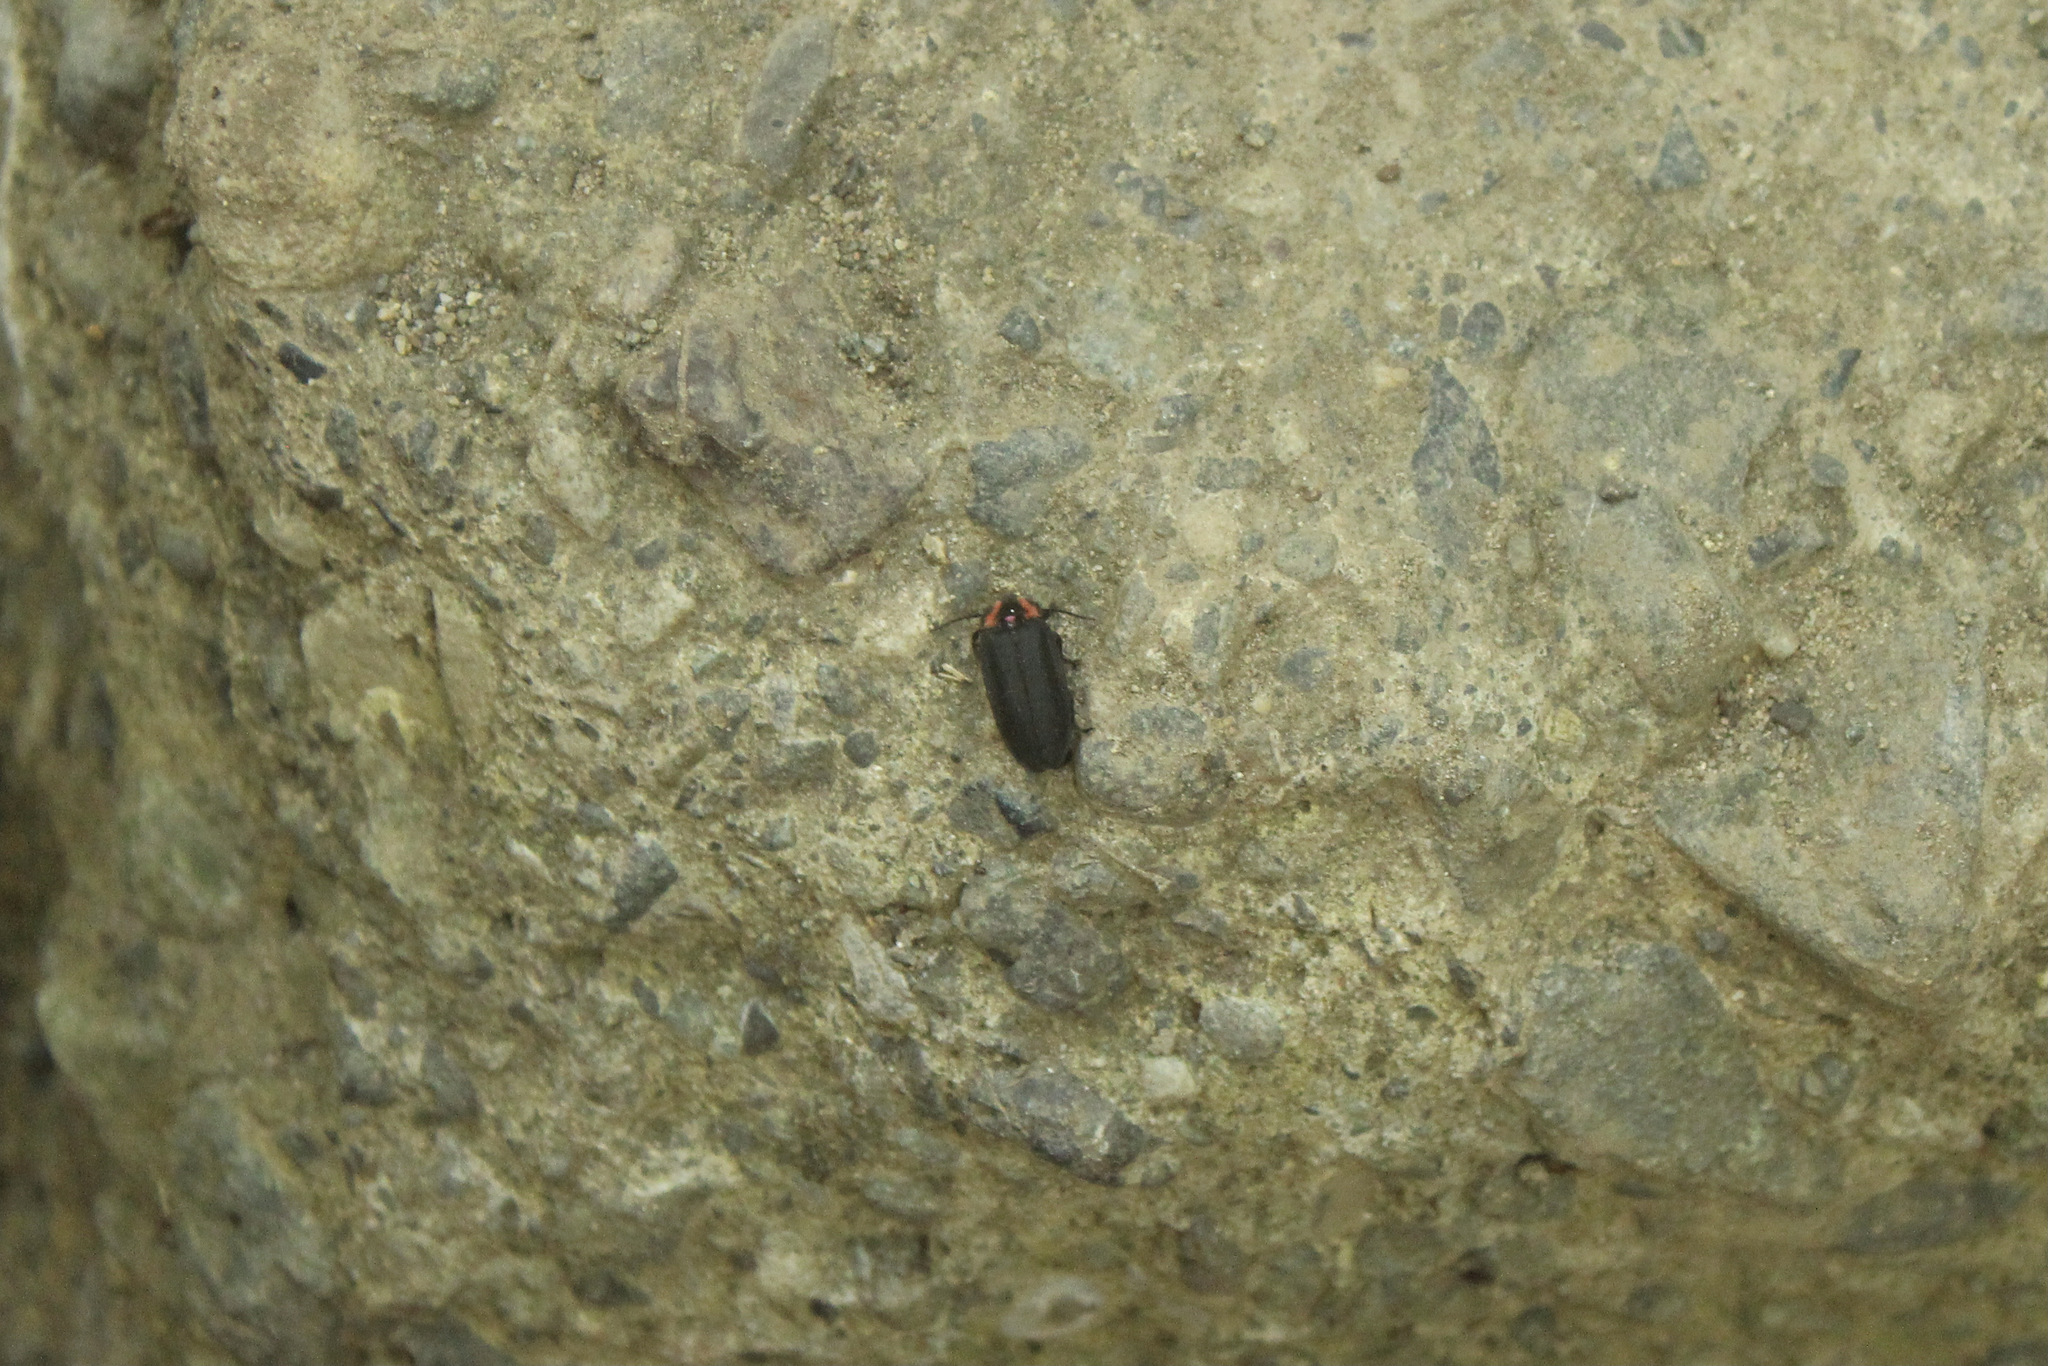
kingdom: Animalia
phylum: Arthropoda
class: Insecta
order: Coleoptera
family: Lampyridae
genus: Photinus
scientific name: Photinus californica
